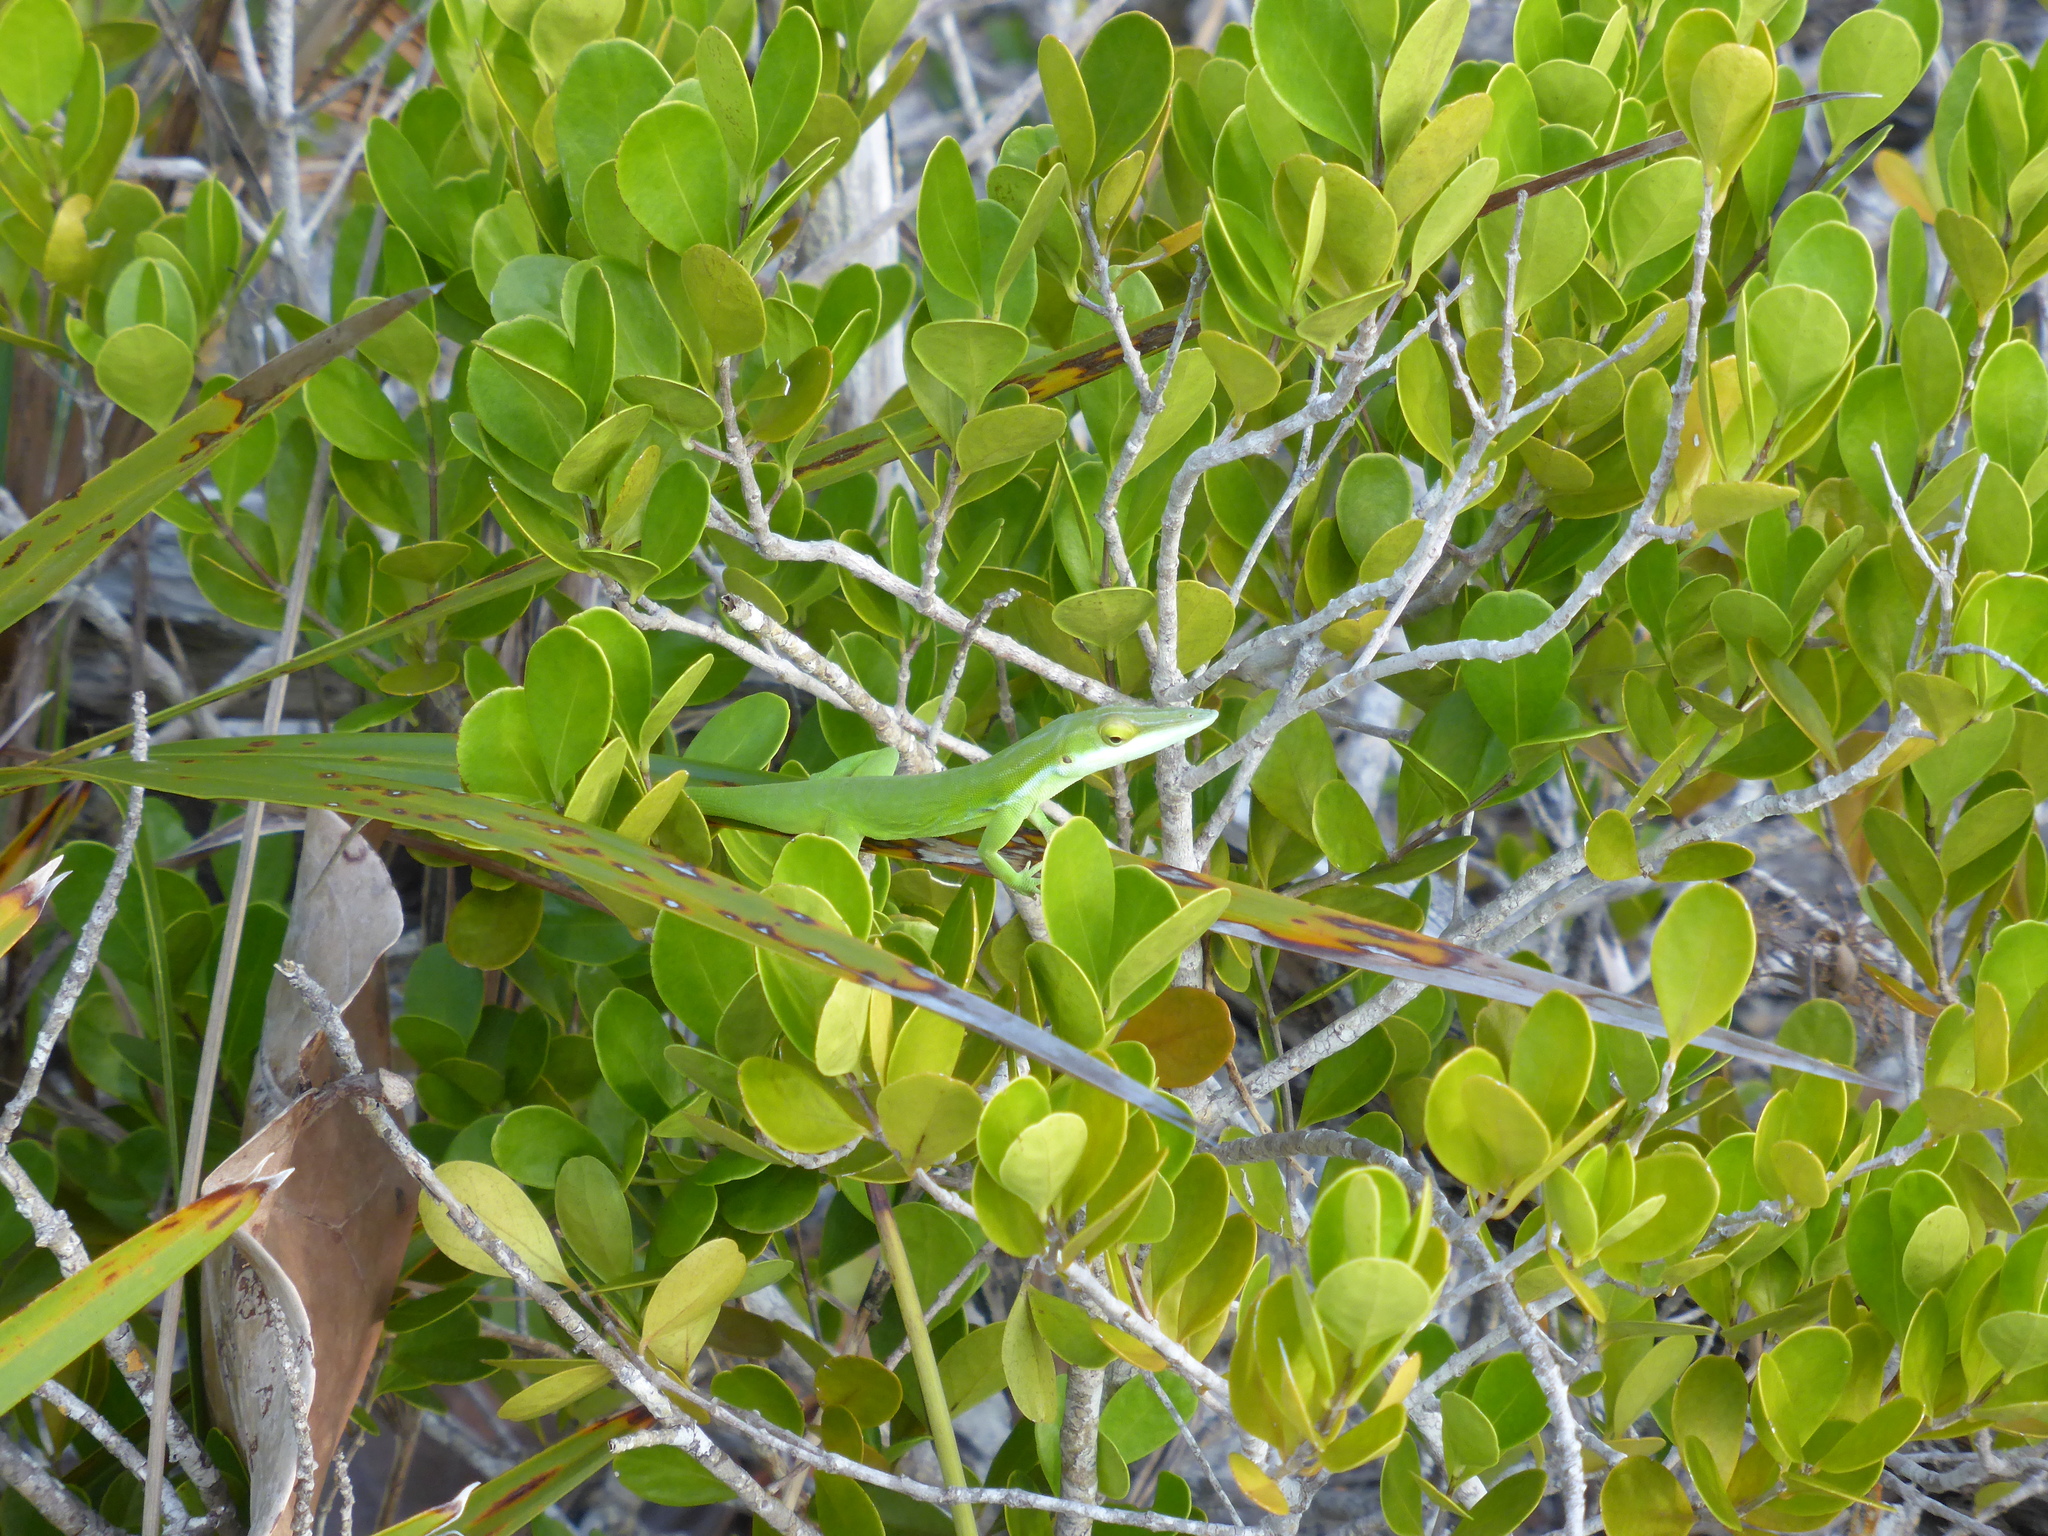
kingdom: Animalia
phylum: Chordata
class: Squamata
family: Dactyloidae
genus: Anolis
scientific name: Anolis maynardii
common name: Maynard's anole
